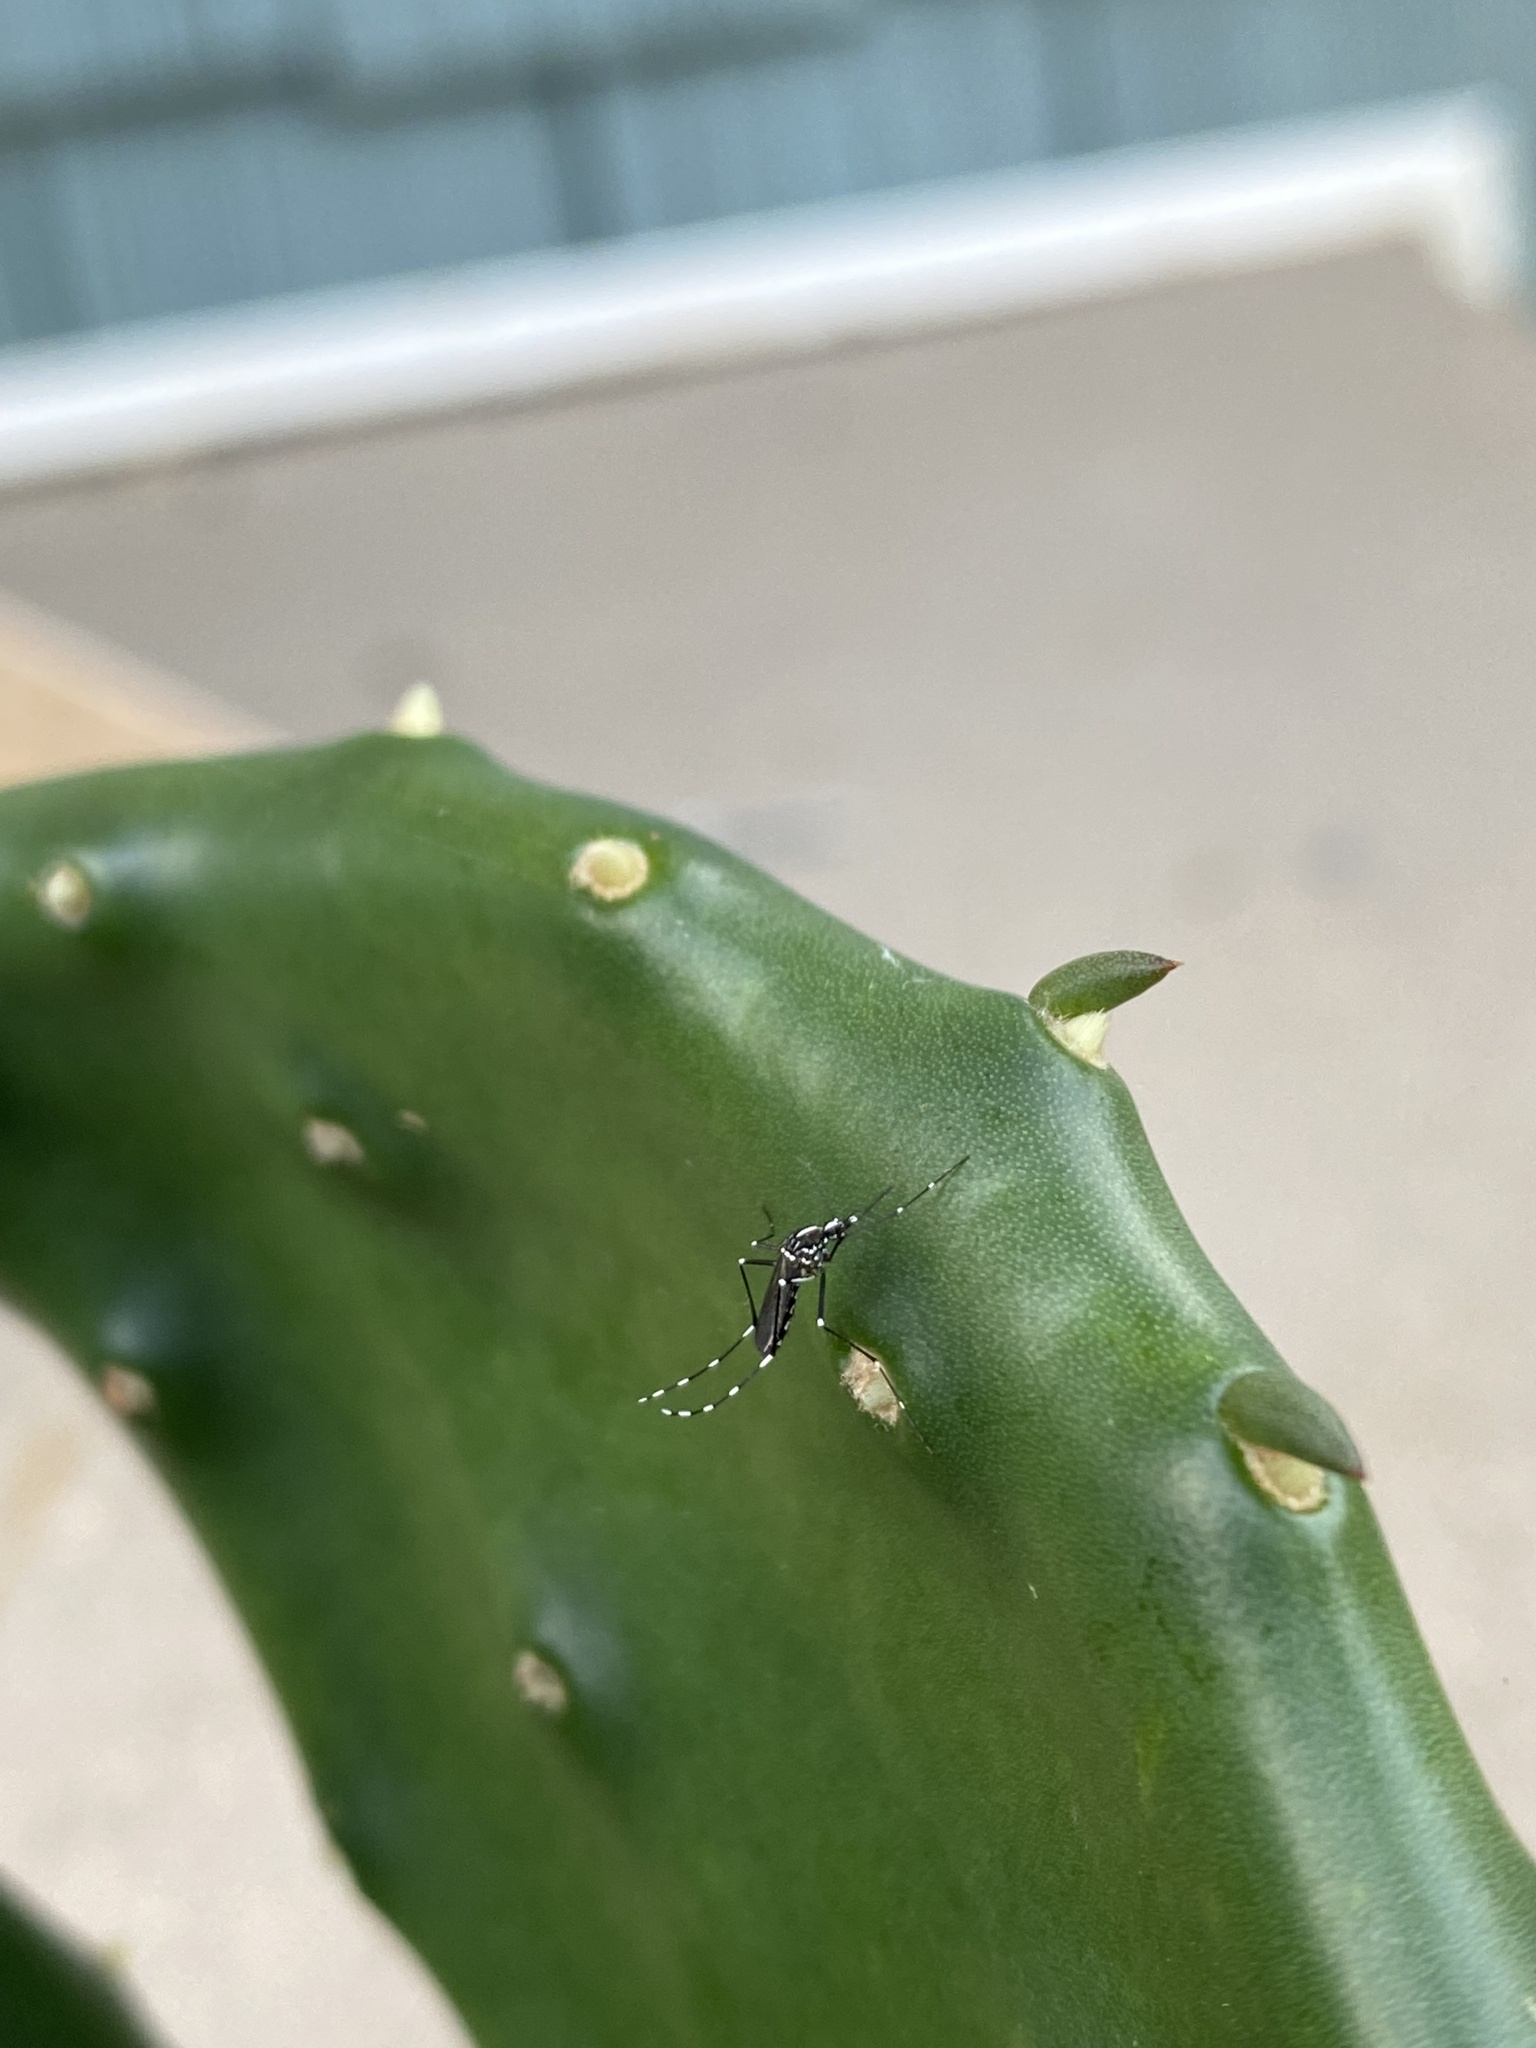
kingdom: Animalia
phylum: Arthropoda
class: Insecta
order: Diptera
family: Culicidae
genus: Aedes
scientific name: Aedes albopictus
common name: Tiger mosquito
